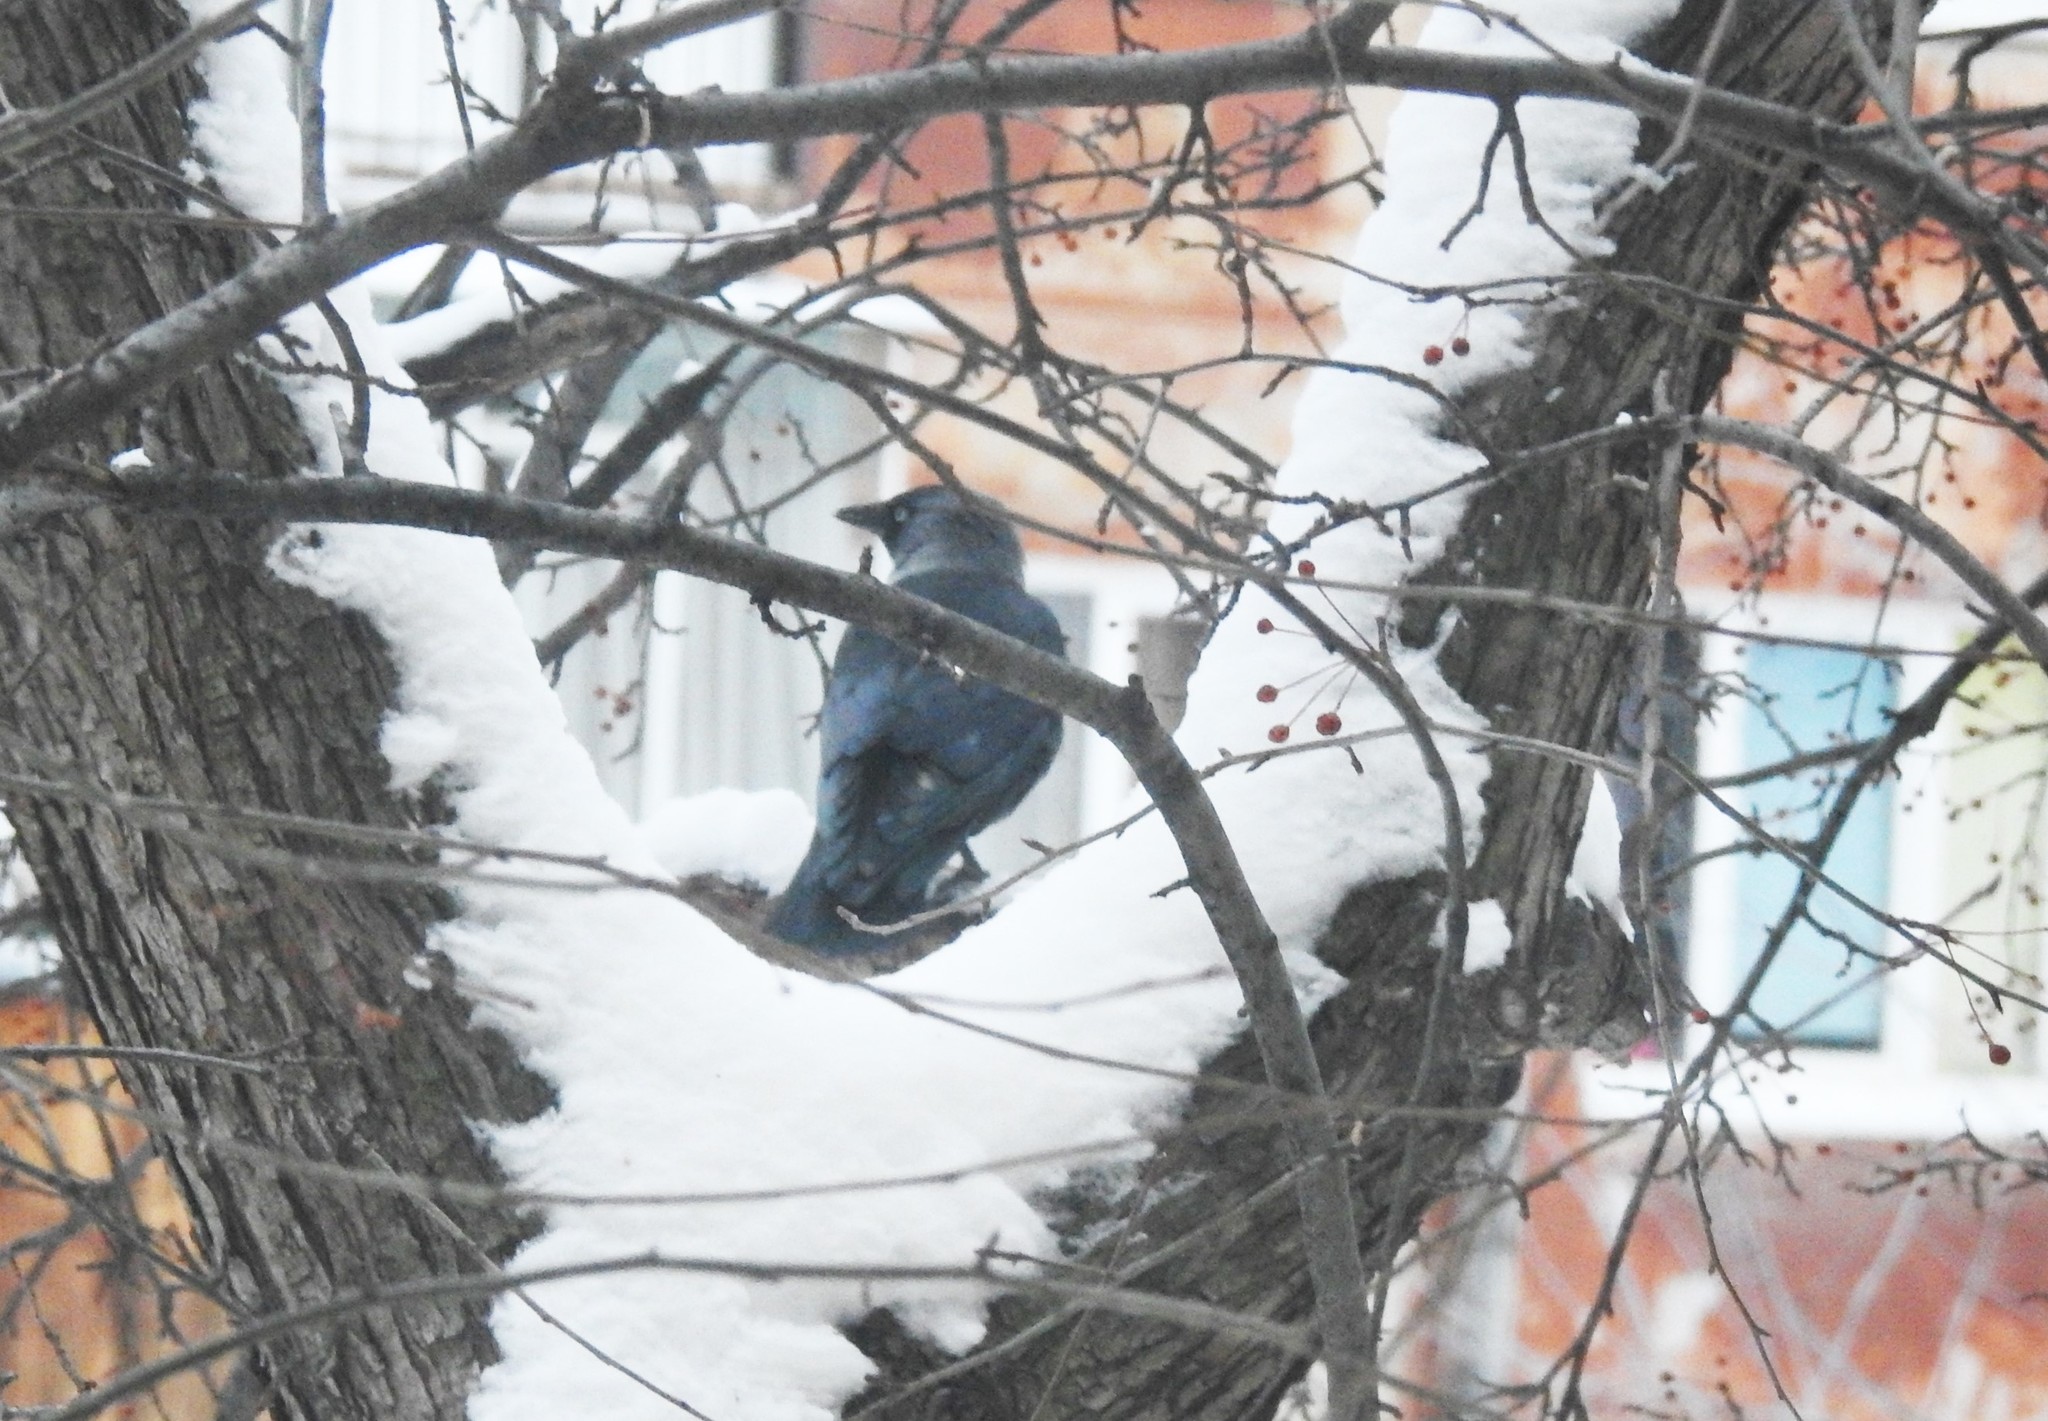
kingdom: Animalia
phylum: Chordata
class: Aves
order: Passeriformes
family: Corvidae
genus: Coloeus
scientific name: Coloeus monedula
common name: Western jackdaw
